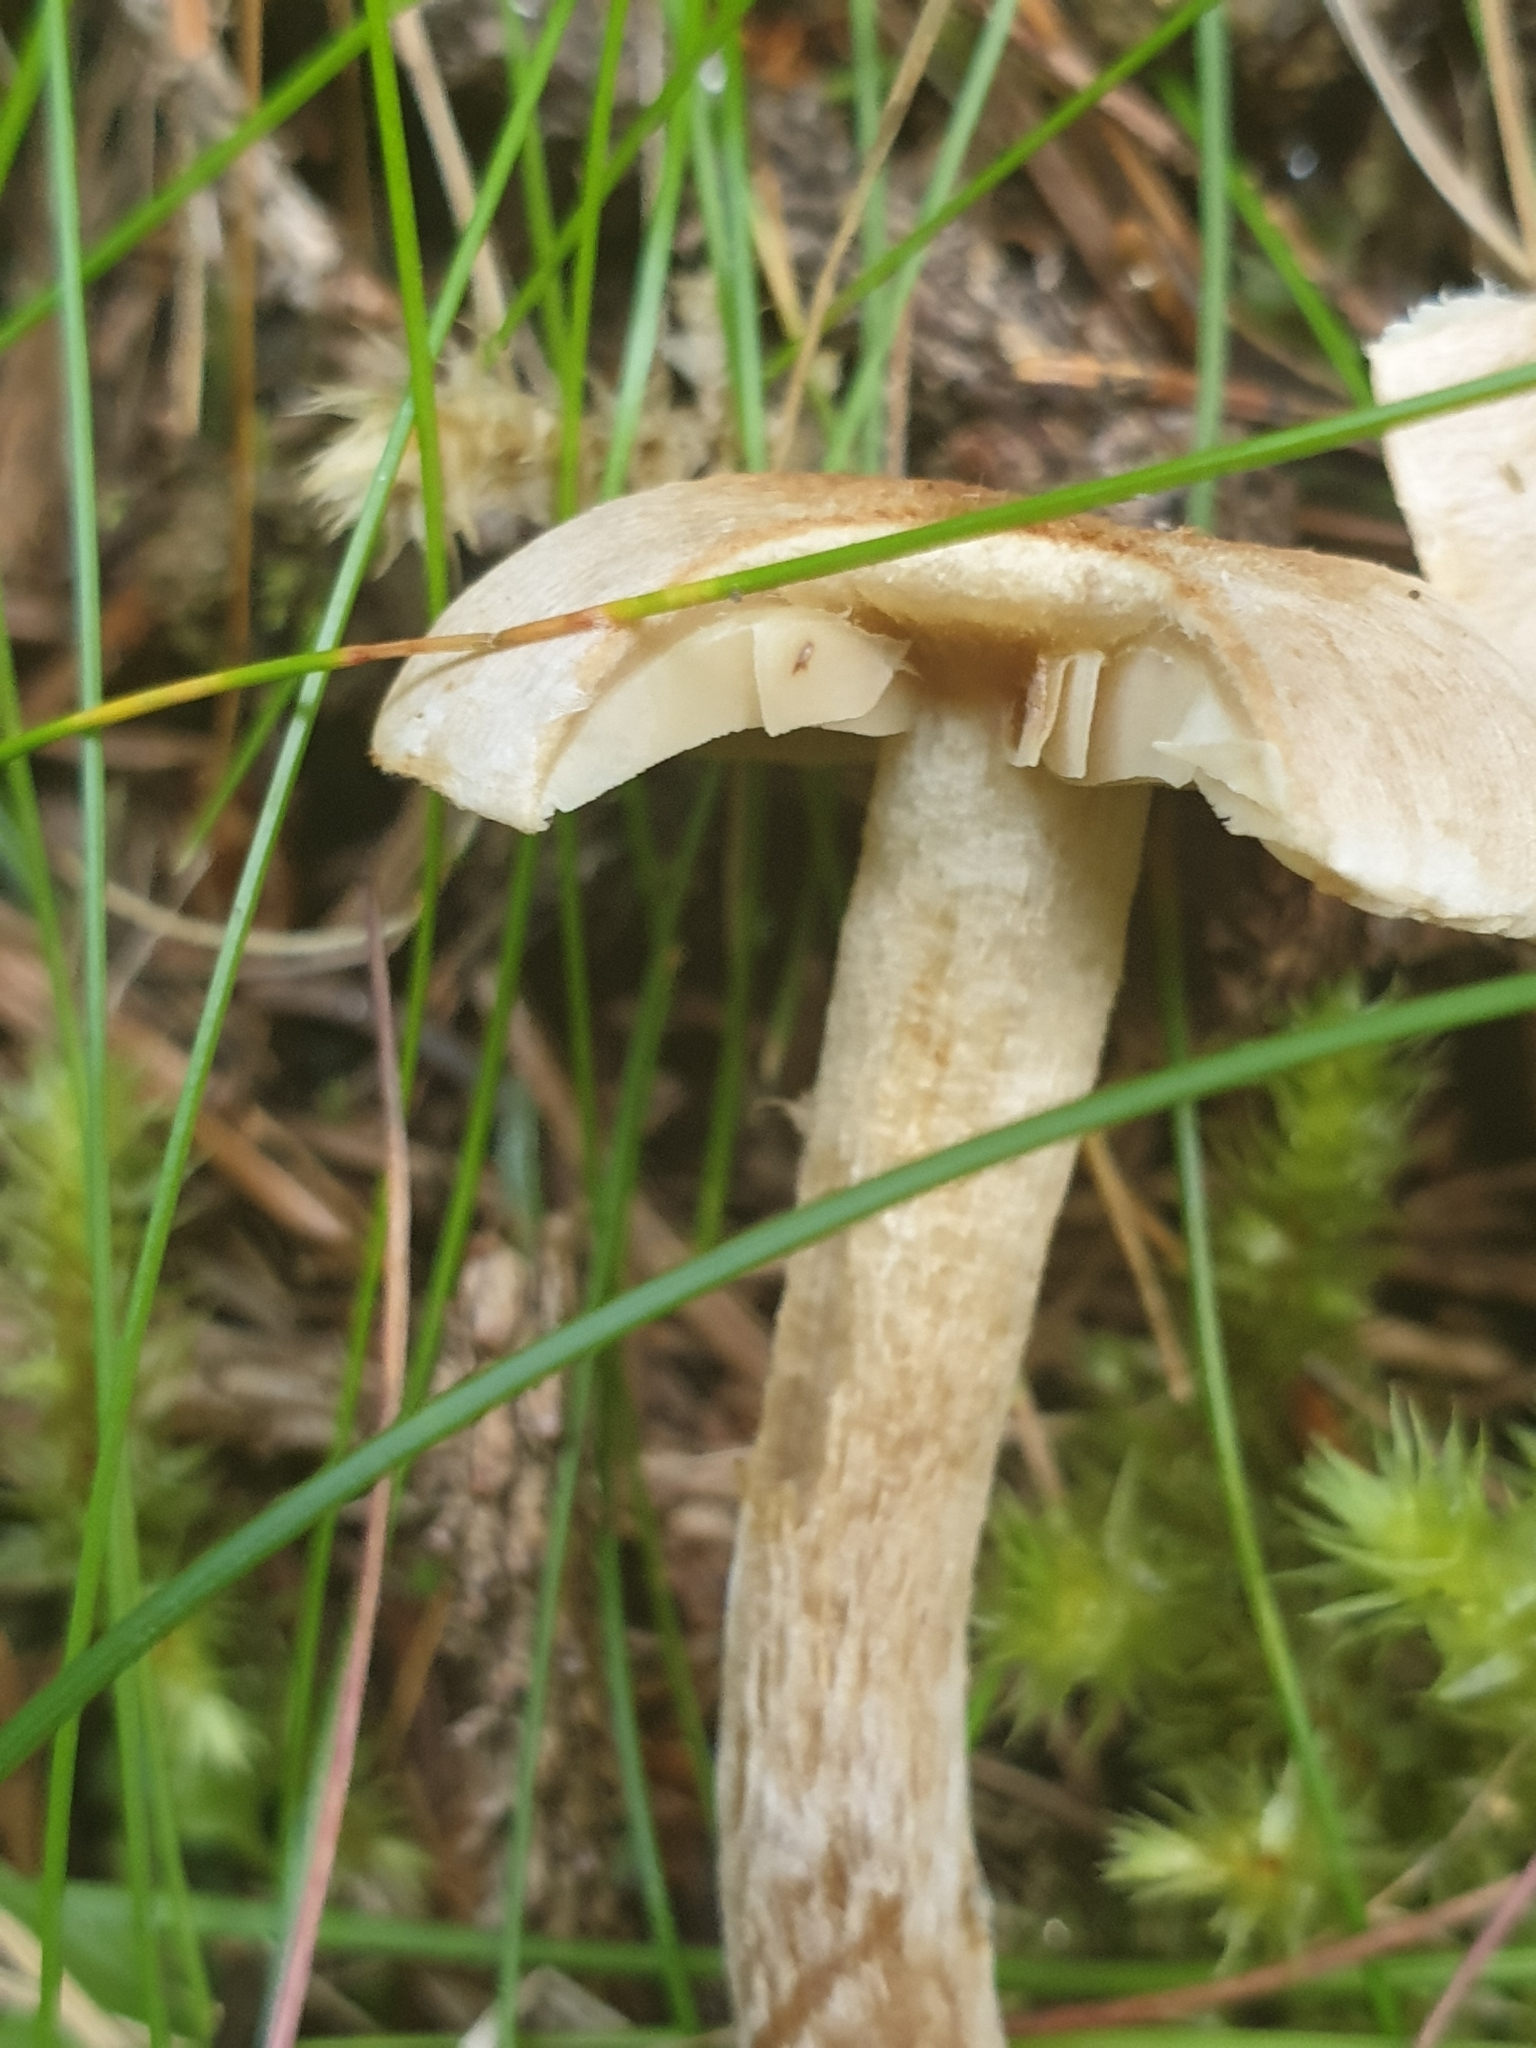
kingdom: Fungi
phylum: Basidiomycota
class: Agaricomycetes
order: Agaricales
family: Hymenogastraceae
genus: Hebeloma
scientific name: Hebeloma mesophaeum
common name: Veiled poisonpie
